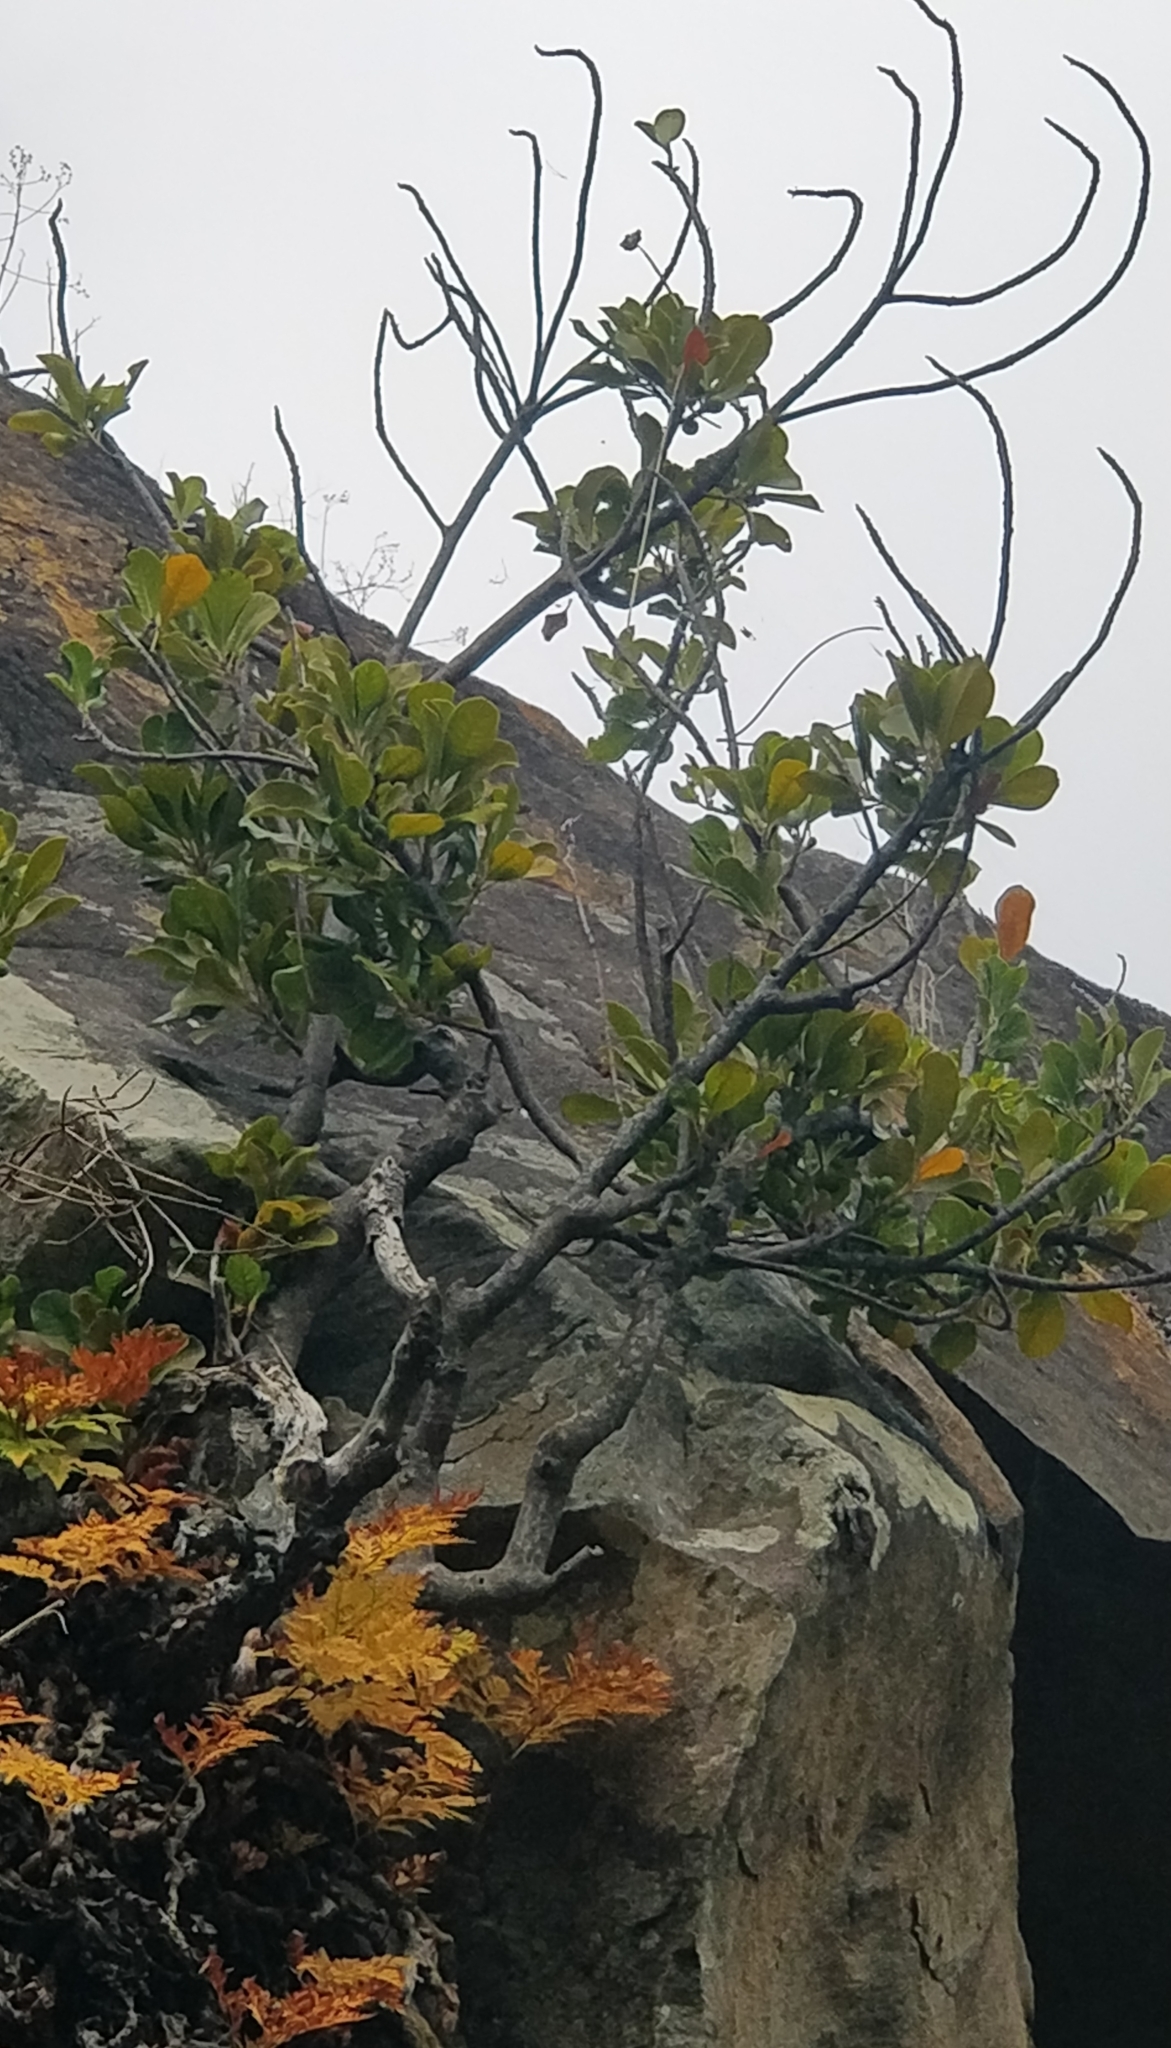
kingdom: Plantae
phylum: Tracheophyta
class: Magnoliopsida
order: Ericales
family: Sapotaceae
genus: Sideroxylon
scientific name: Sideroxylon mirmulans
